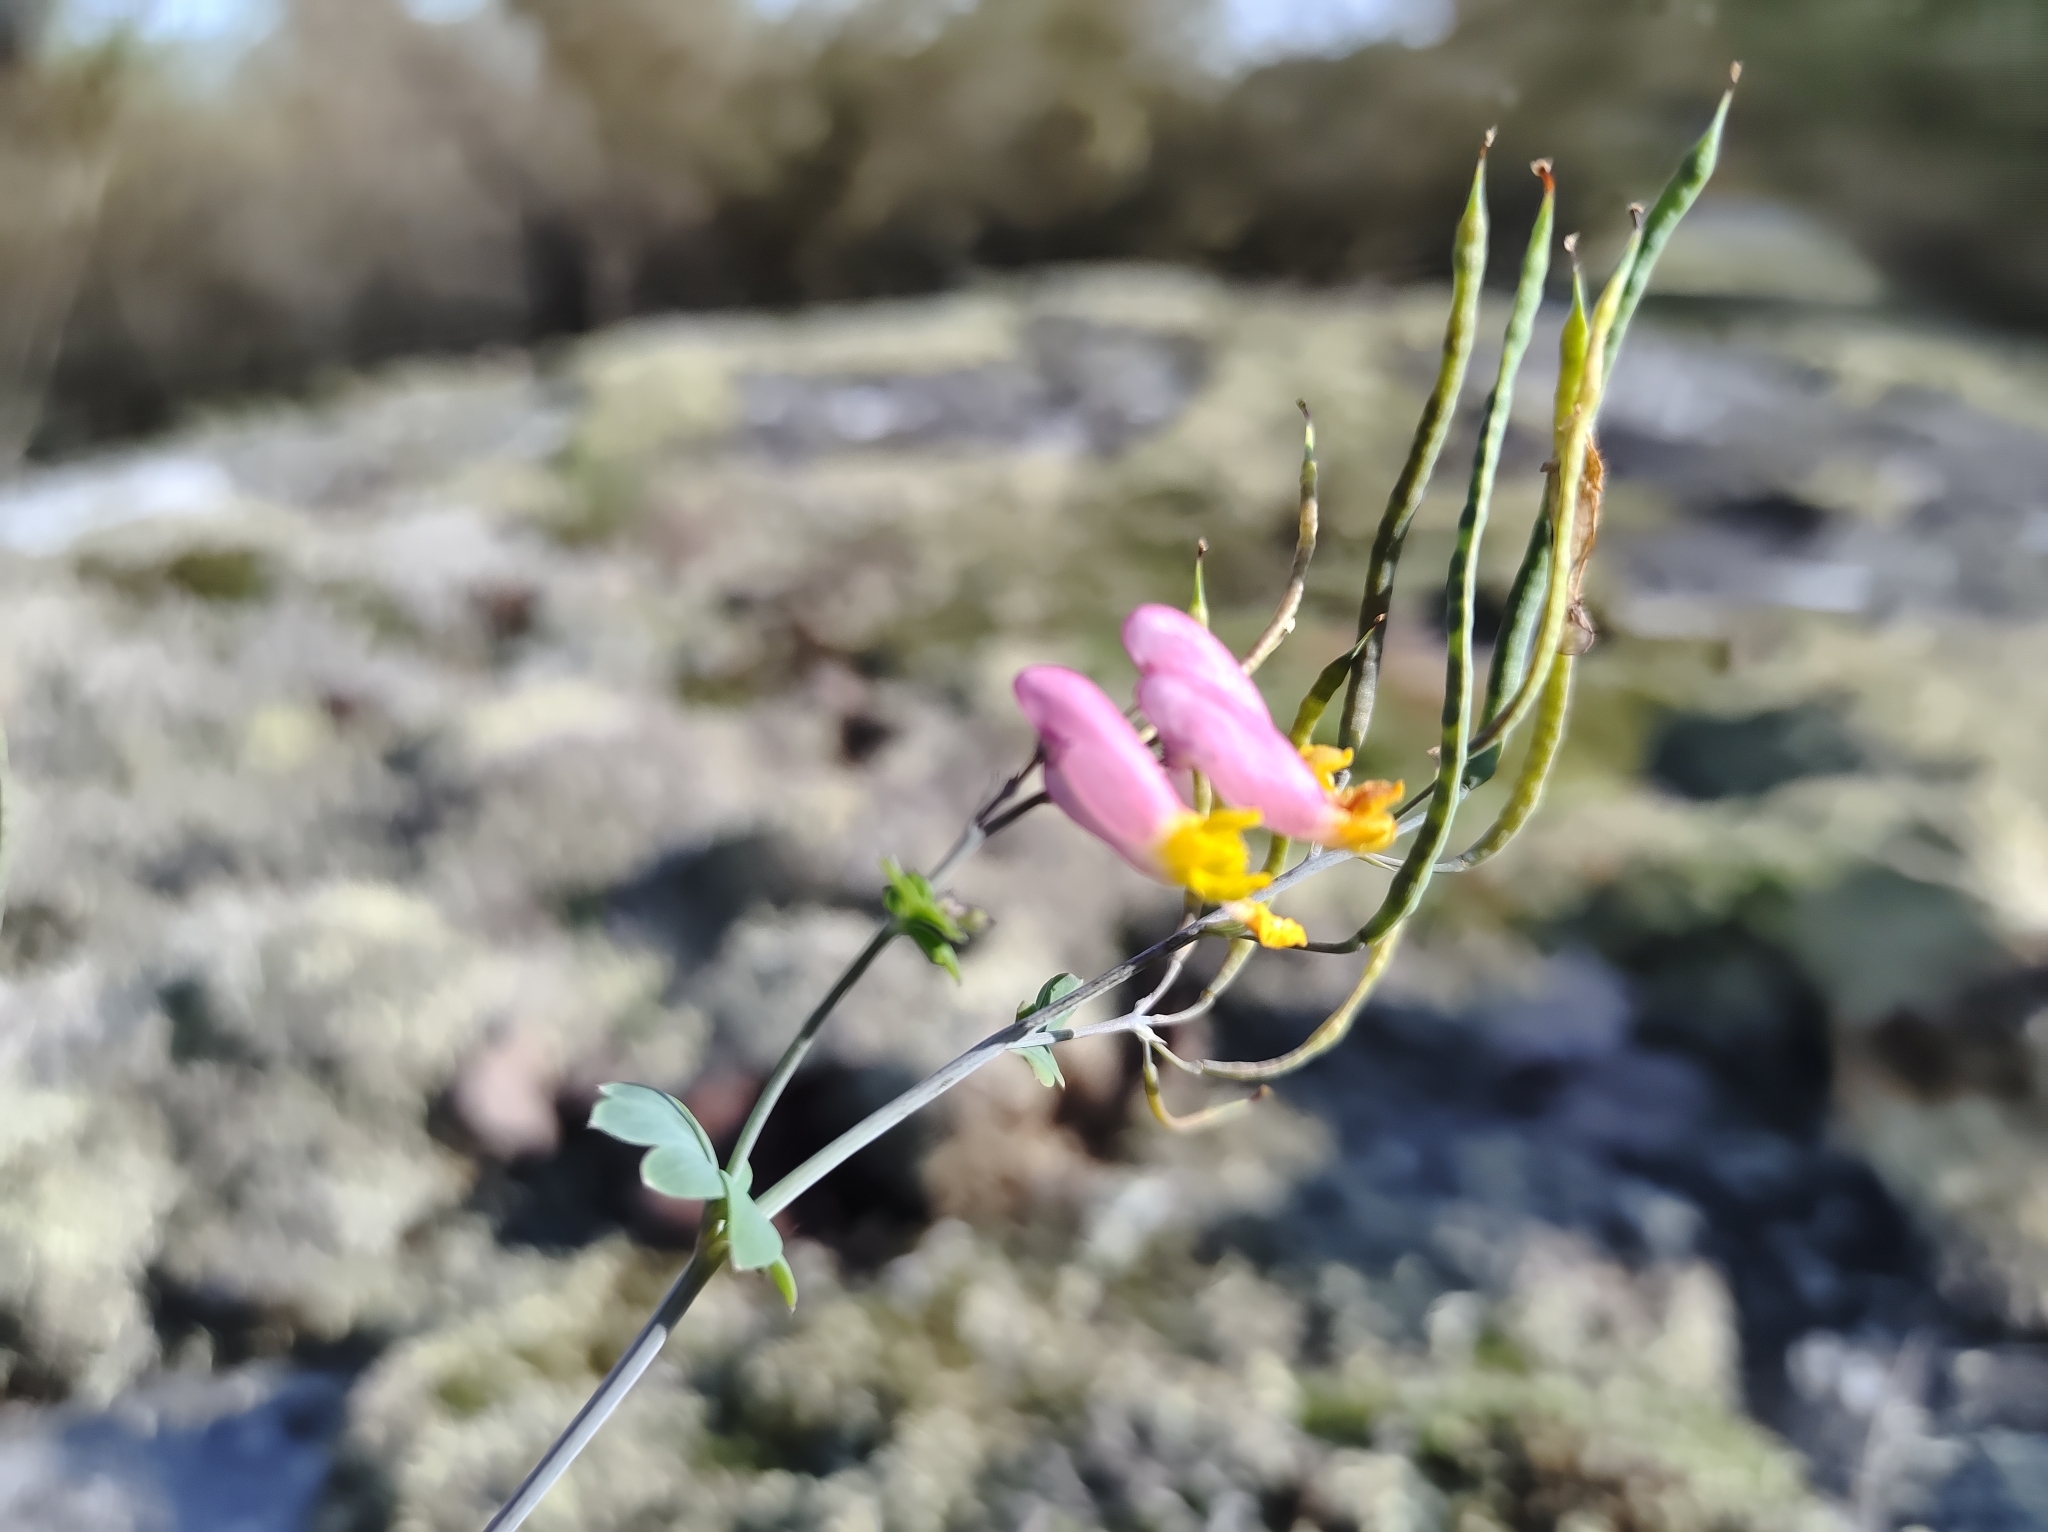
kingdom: Plantae
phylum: Tracheophyta
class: Magnoliopsida
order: Ranunculales
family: Papaveraceae
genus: Capnoides
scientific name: Capnoides sempervirens
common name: Rock harlequin
